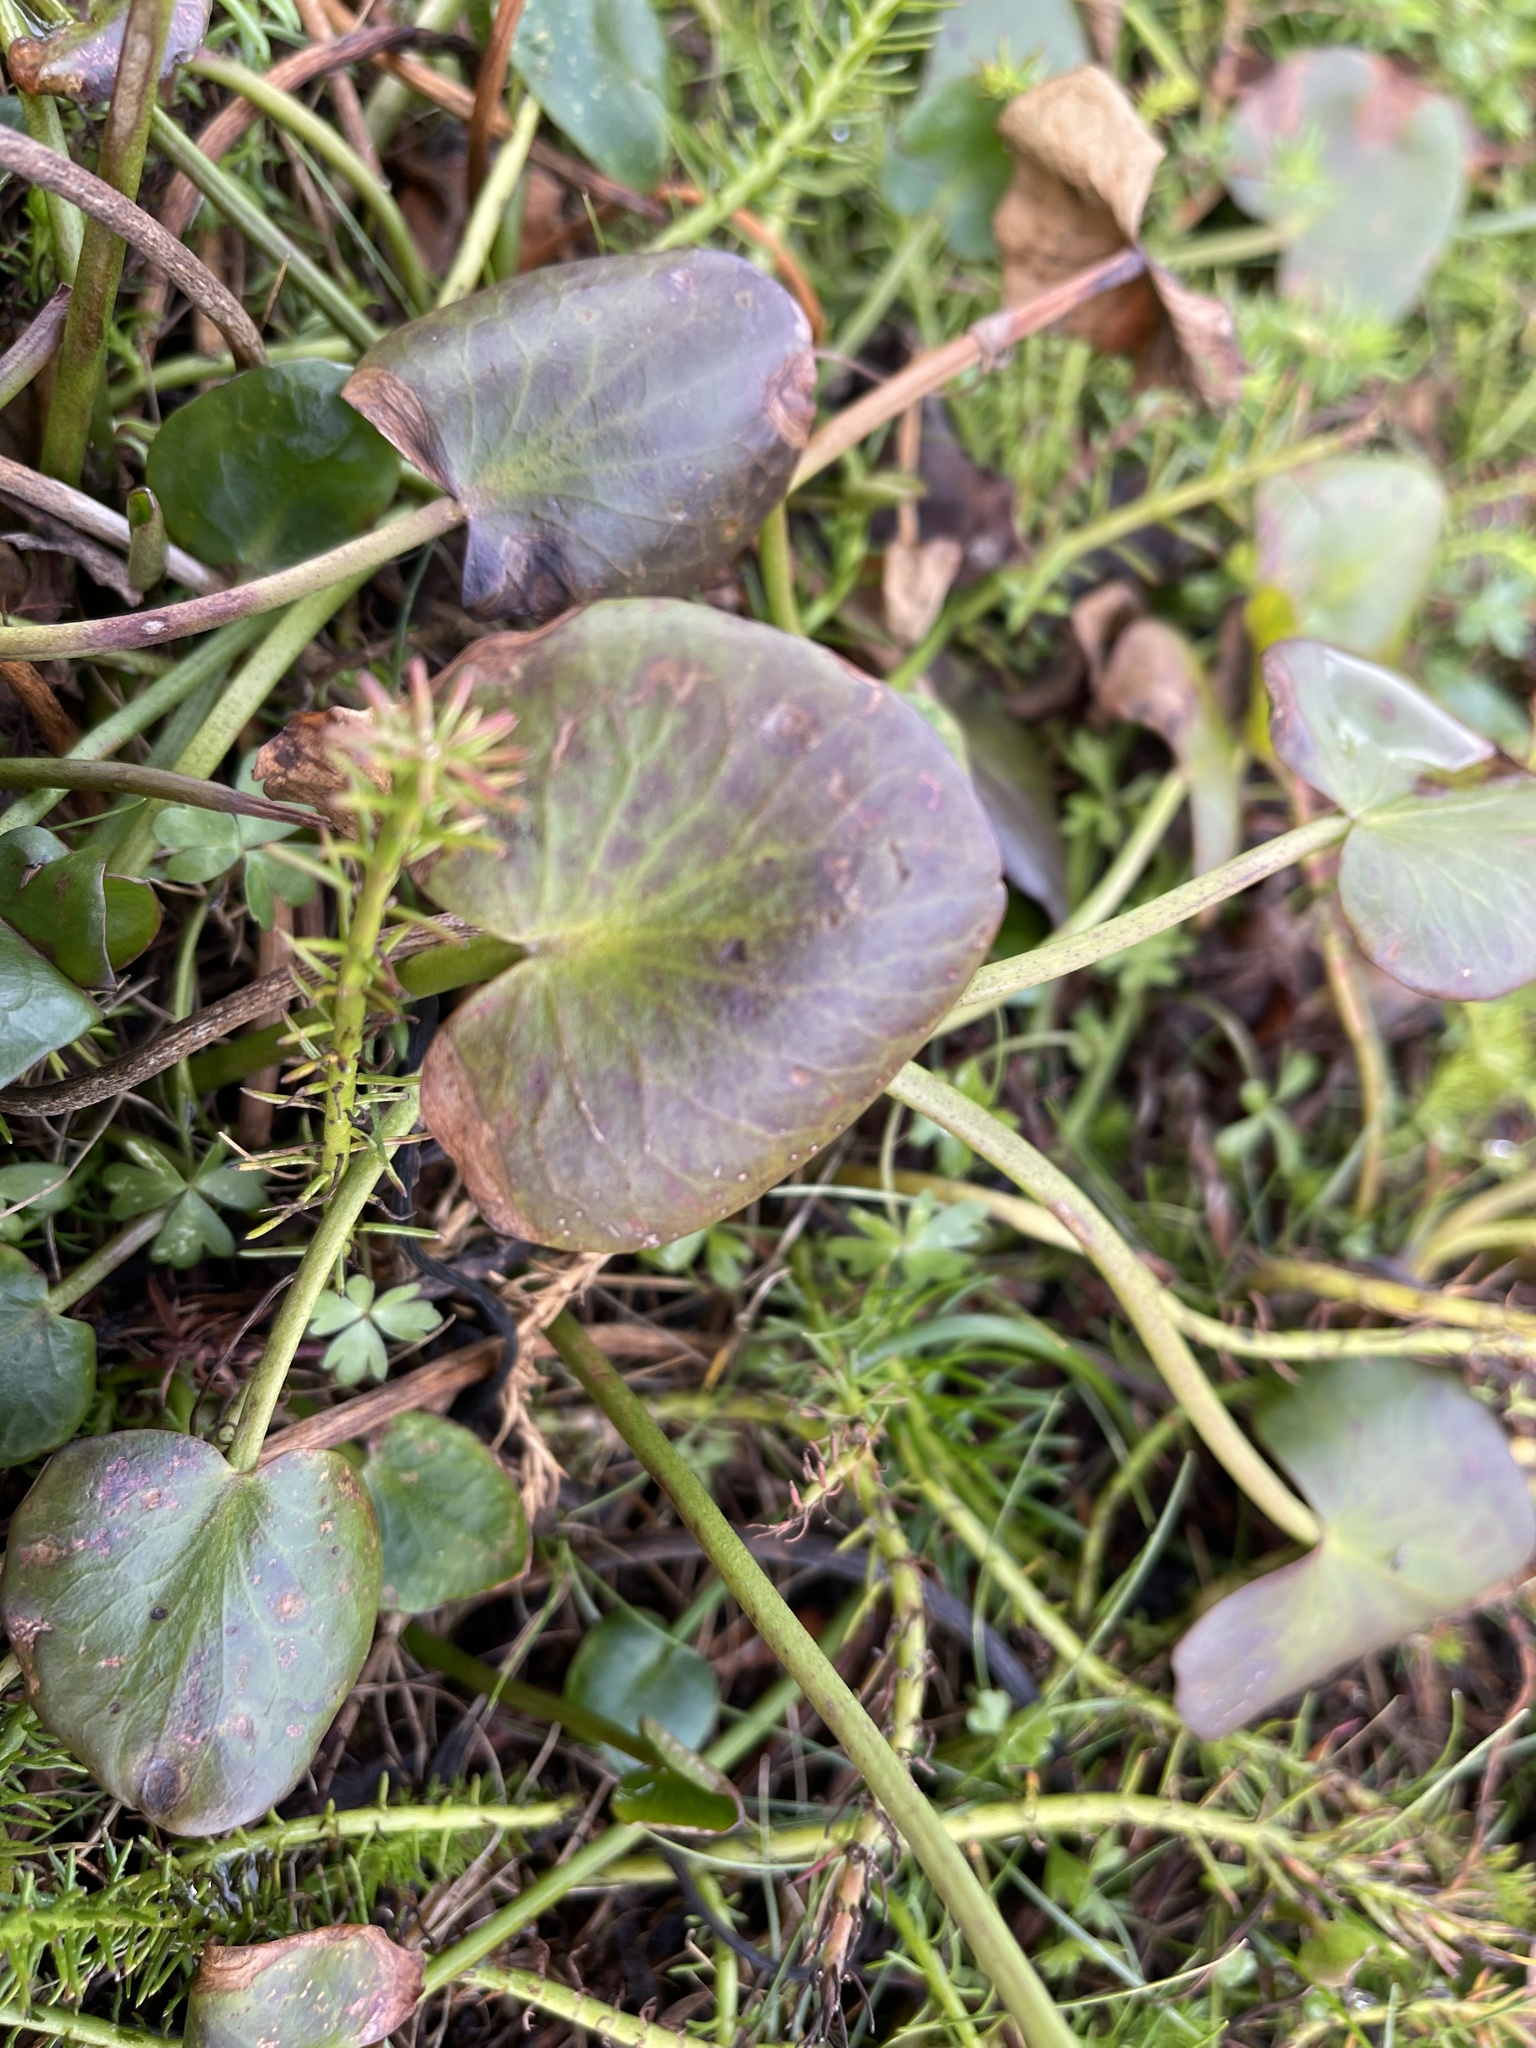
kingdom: Plantae
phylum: Tracheophyta
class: Magnoliopsida
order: Asterales
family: Menyanthaceae
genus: Ornduffia
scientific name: Ornduffia reniformis
